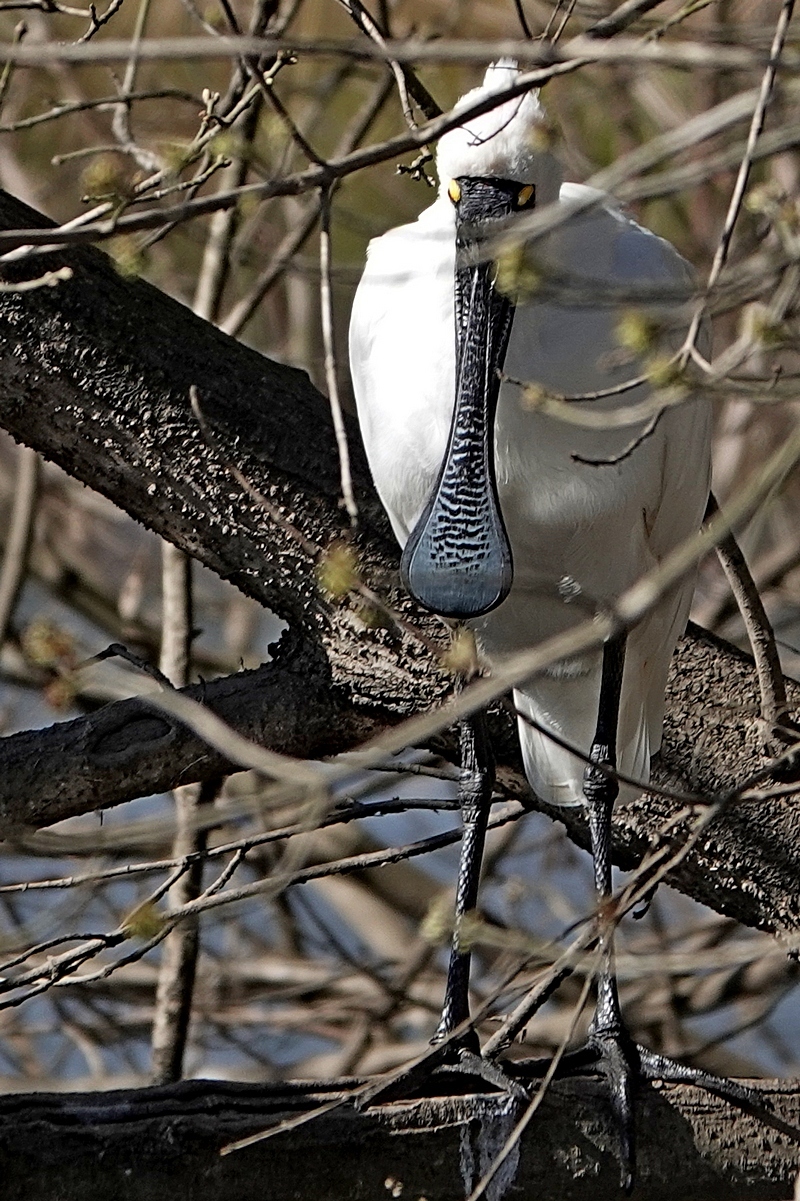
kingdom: Animalia
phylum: Chordata
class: Aves
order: Pelecaniformes
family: Threskiornithidae
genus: Platalea
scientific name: Platalea regia
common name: Royal spoonbill
